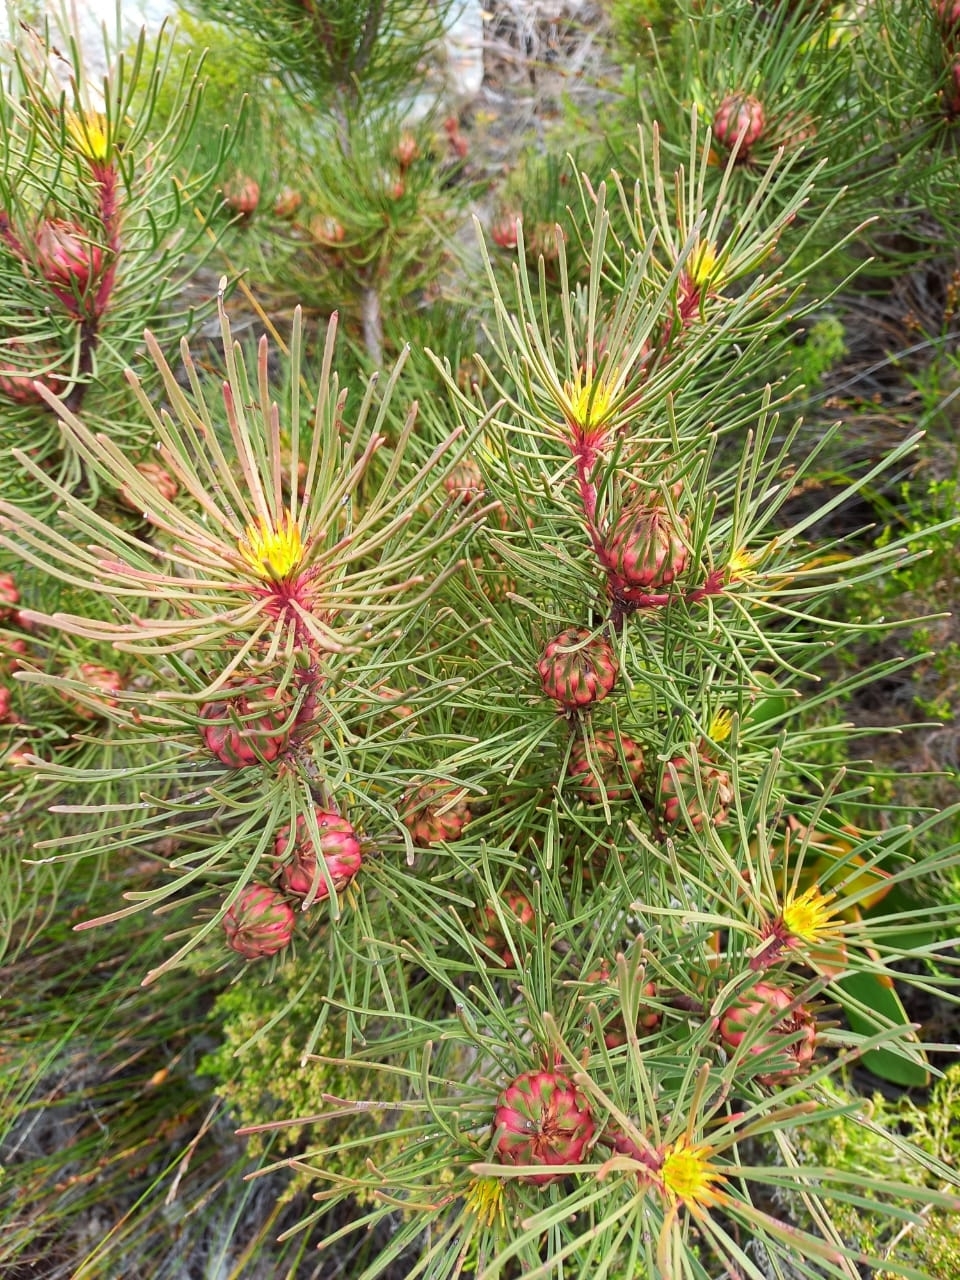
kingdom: Plantae
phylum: Tracheophyta
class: Magnoliopsida
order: Proteales
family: Proteaceae
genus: Aulax
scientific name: Aulax cancellata
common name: Channel-leaf featherbush
